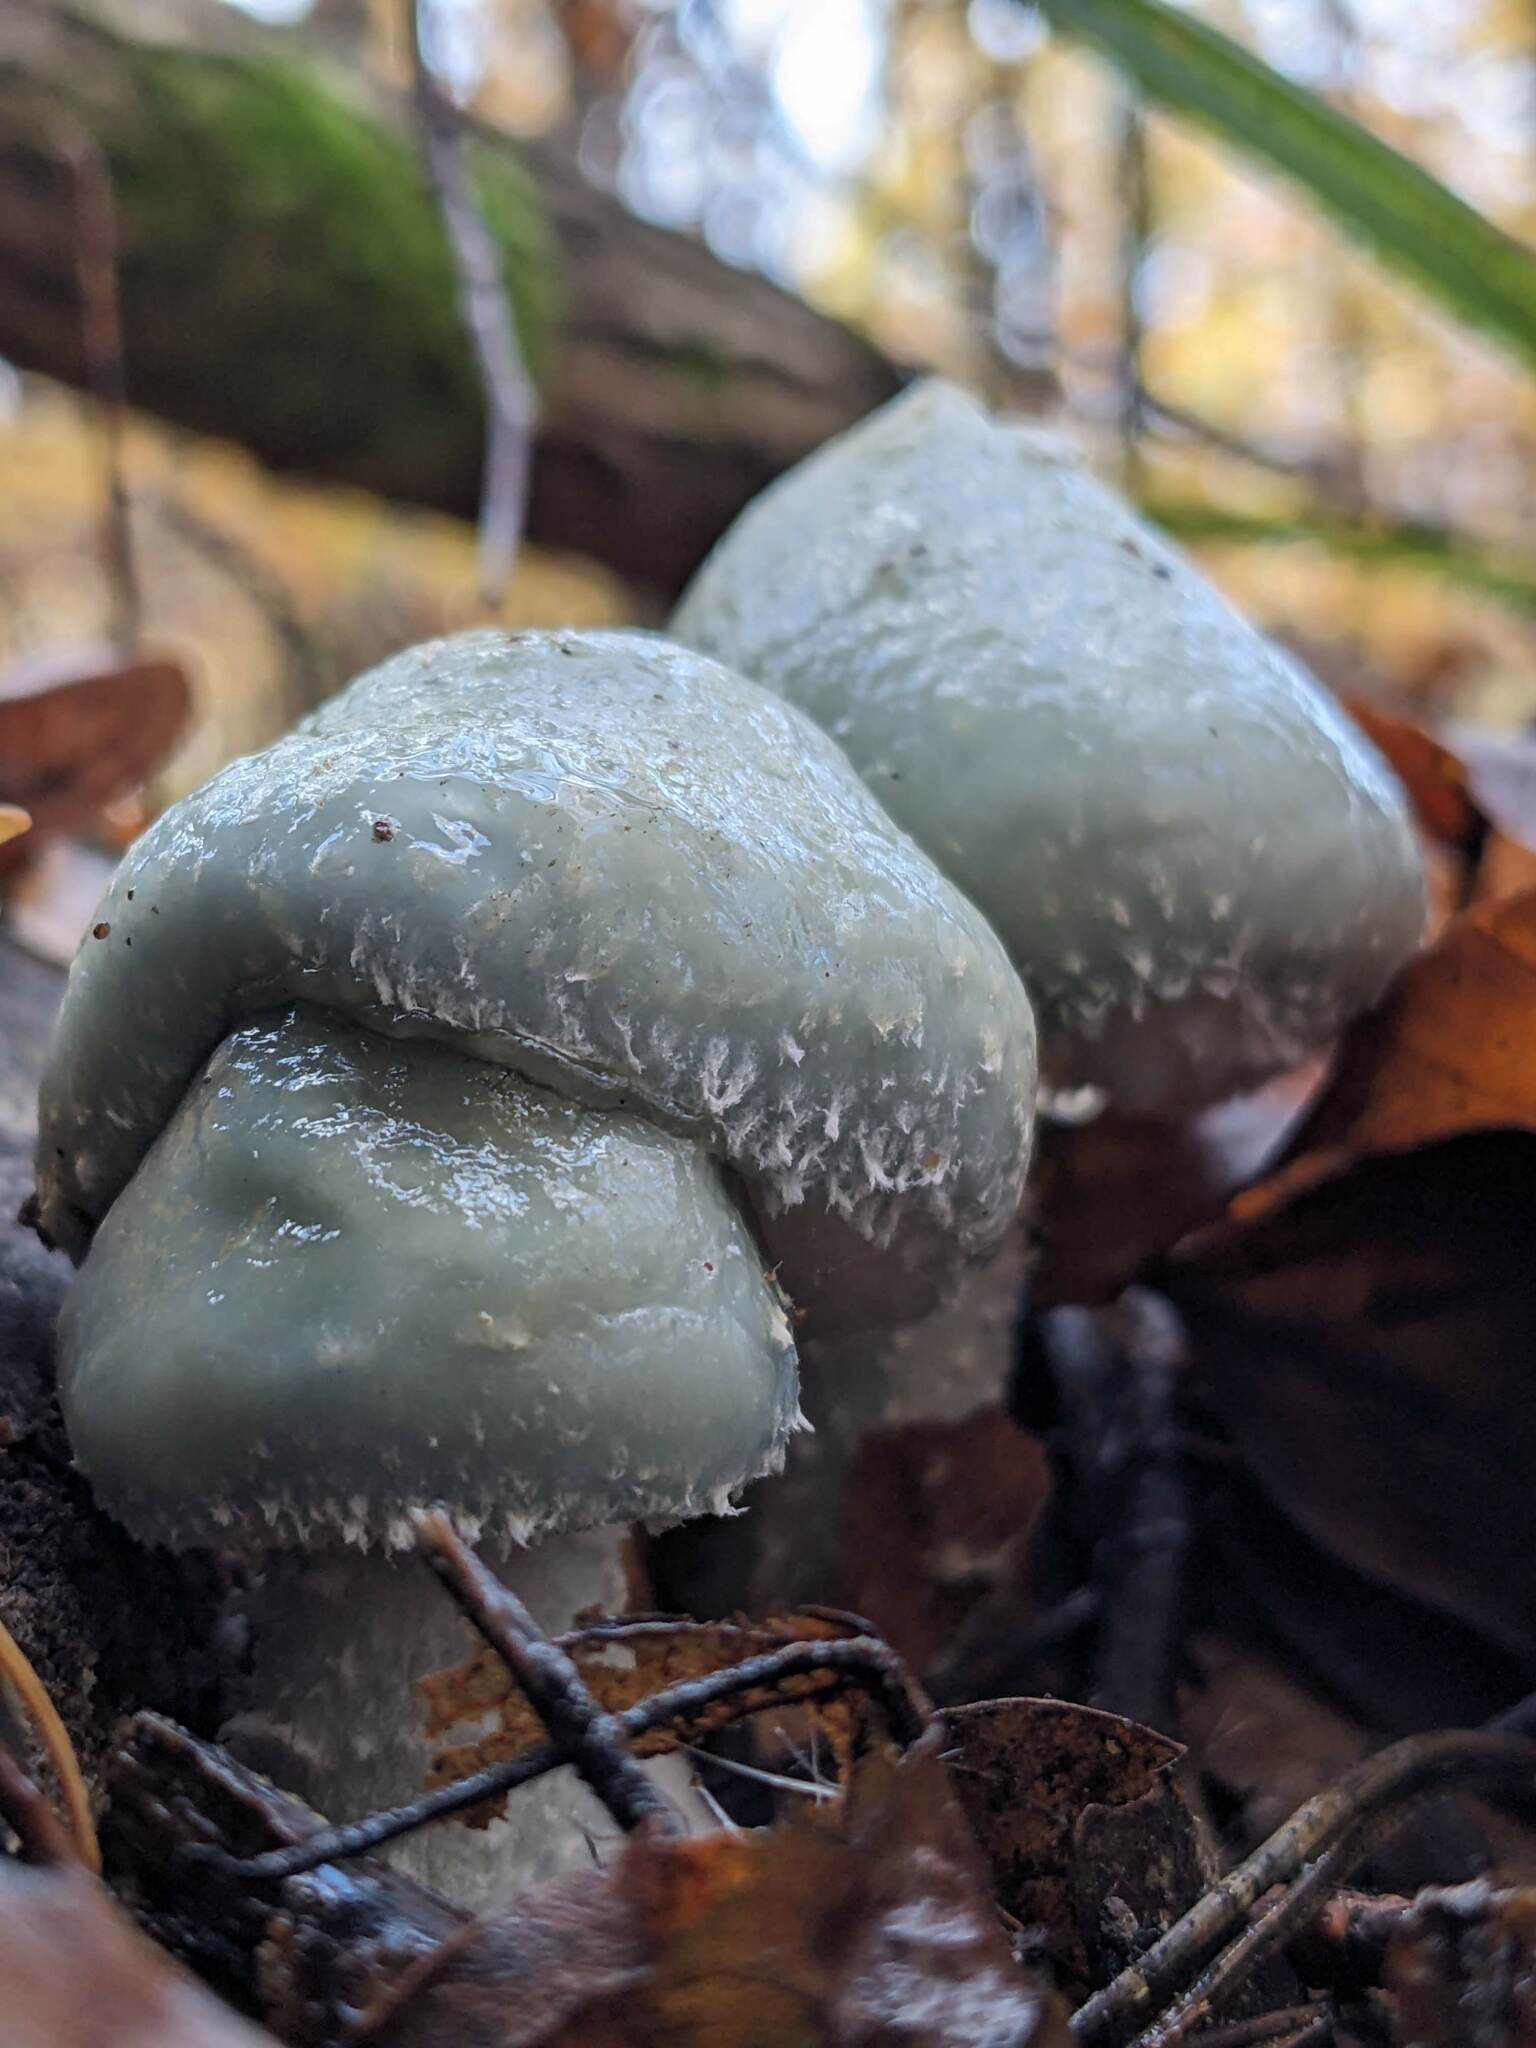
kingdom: Fungi
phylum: Basidiomycota
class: Agaricomycetes
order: Agaricales
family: Strophariaceae
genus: Stropharia
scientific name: Stropharia aeruginosa
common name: Verdigris roundhead
